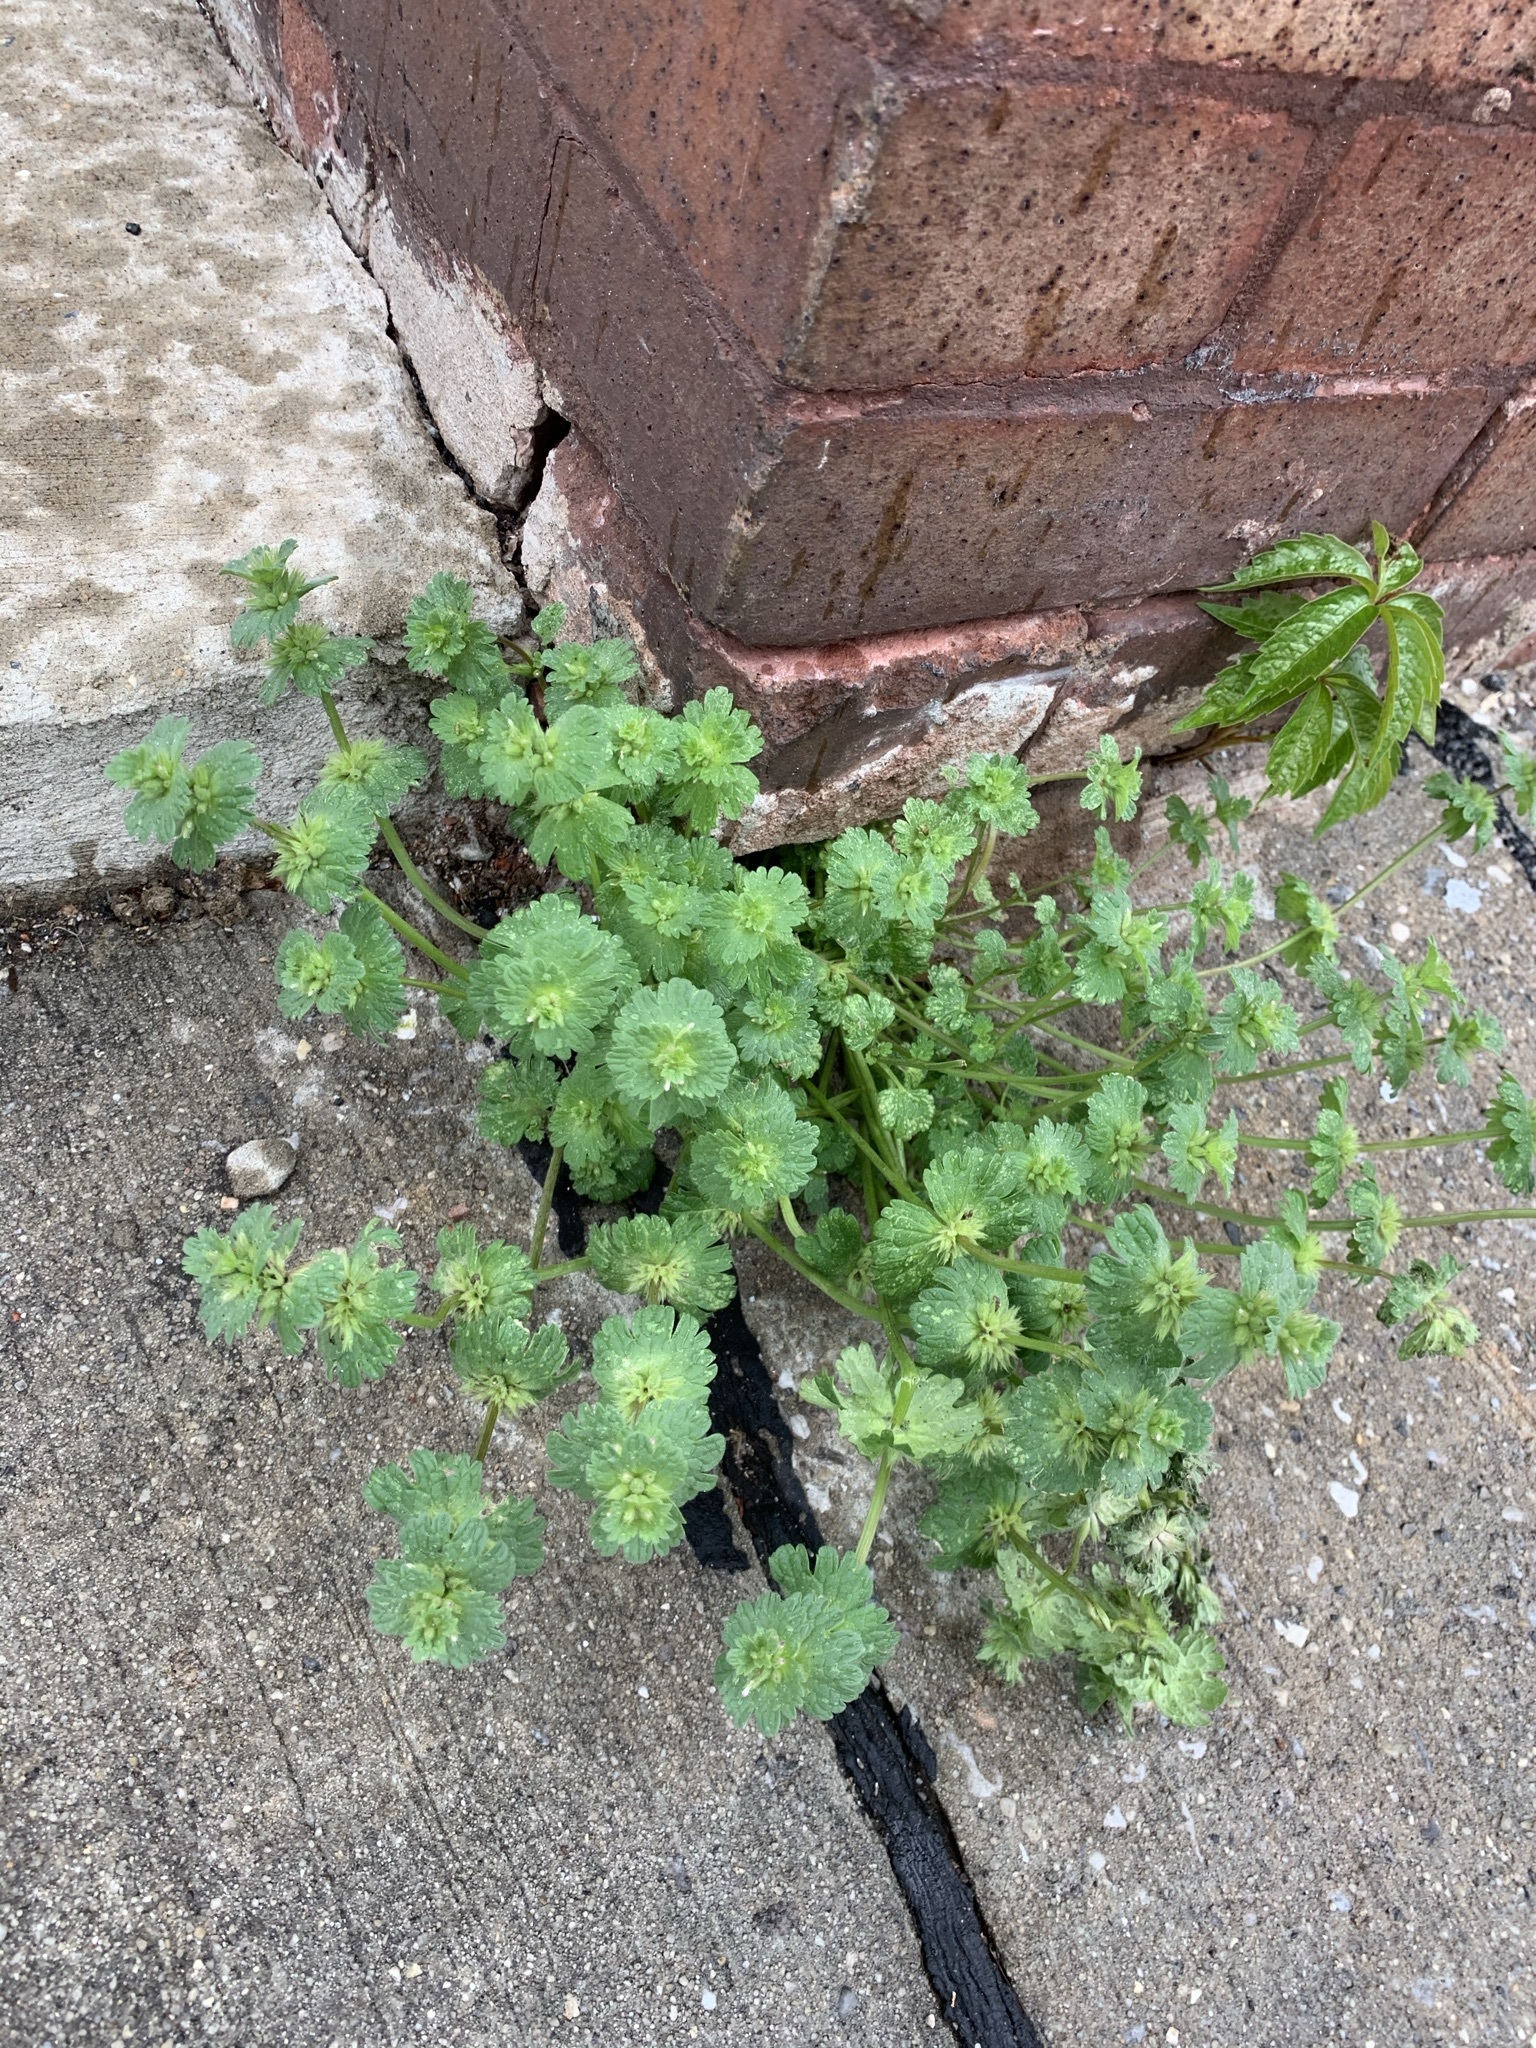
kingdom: Plantae
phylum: Tracheophyta
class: Magnoliopsida
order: Lamiales
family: Lamiaceae
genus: Lamium
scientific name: Lamium amplexicaule
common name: Henbit dead-nettle
